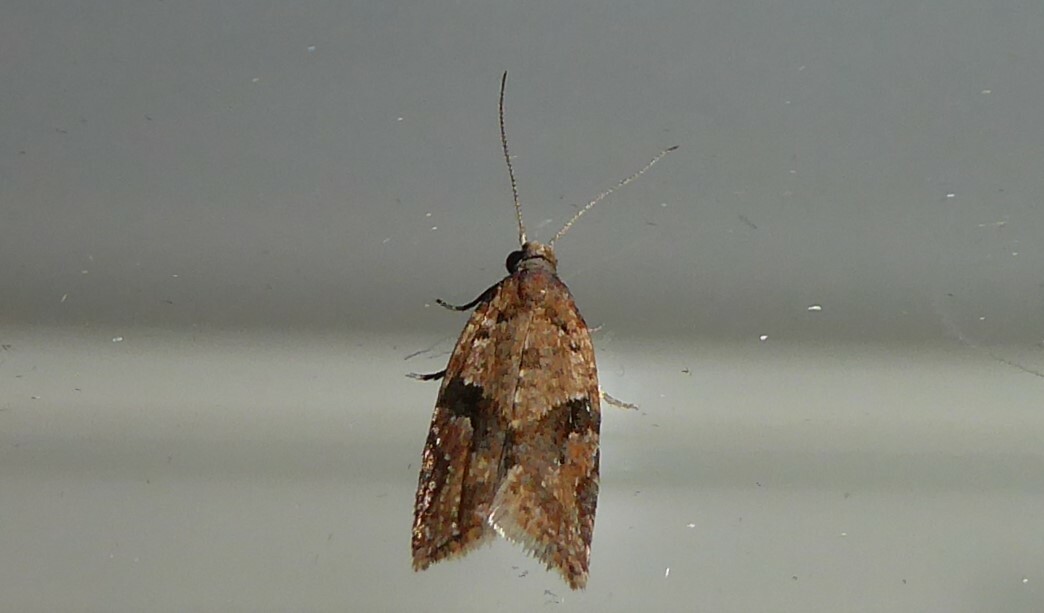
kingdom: Animalia
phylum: Arthropoda
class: Insecta
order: Lepidoptera
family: Tortricidae
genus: Capua
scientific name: Capua semiferana
